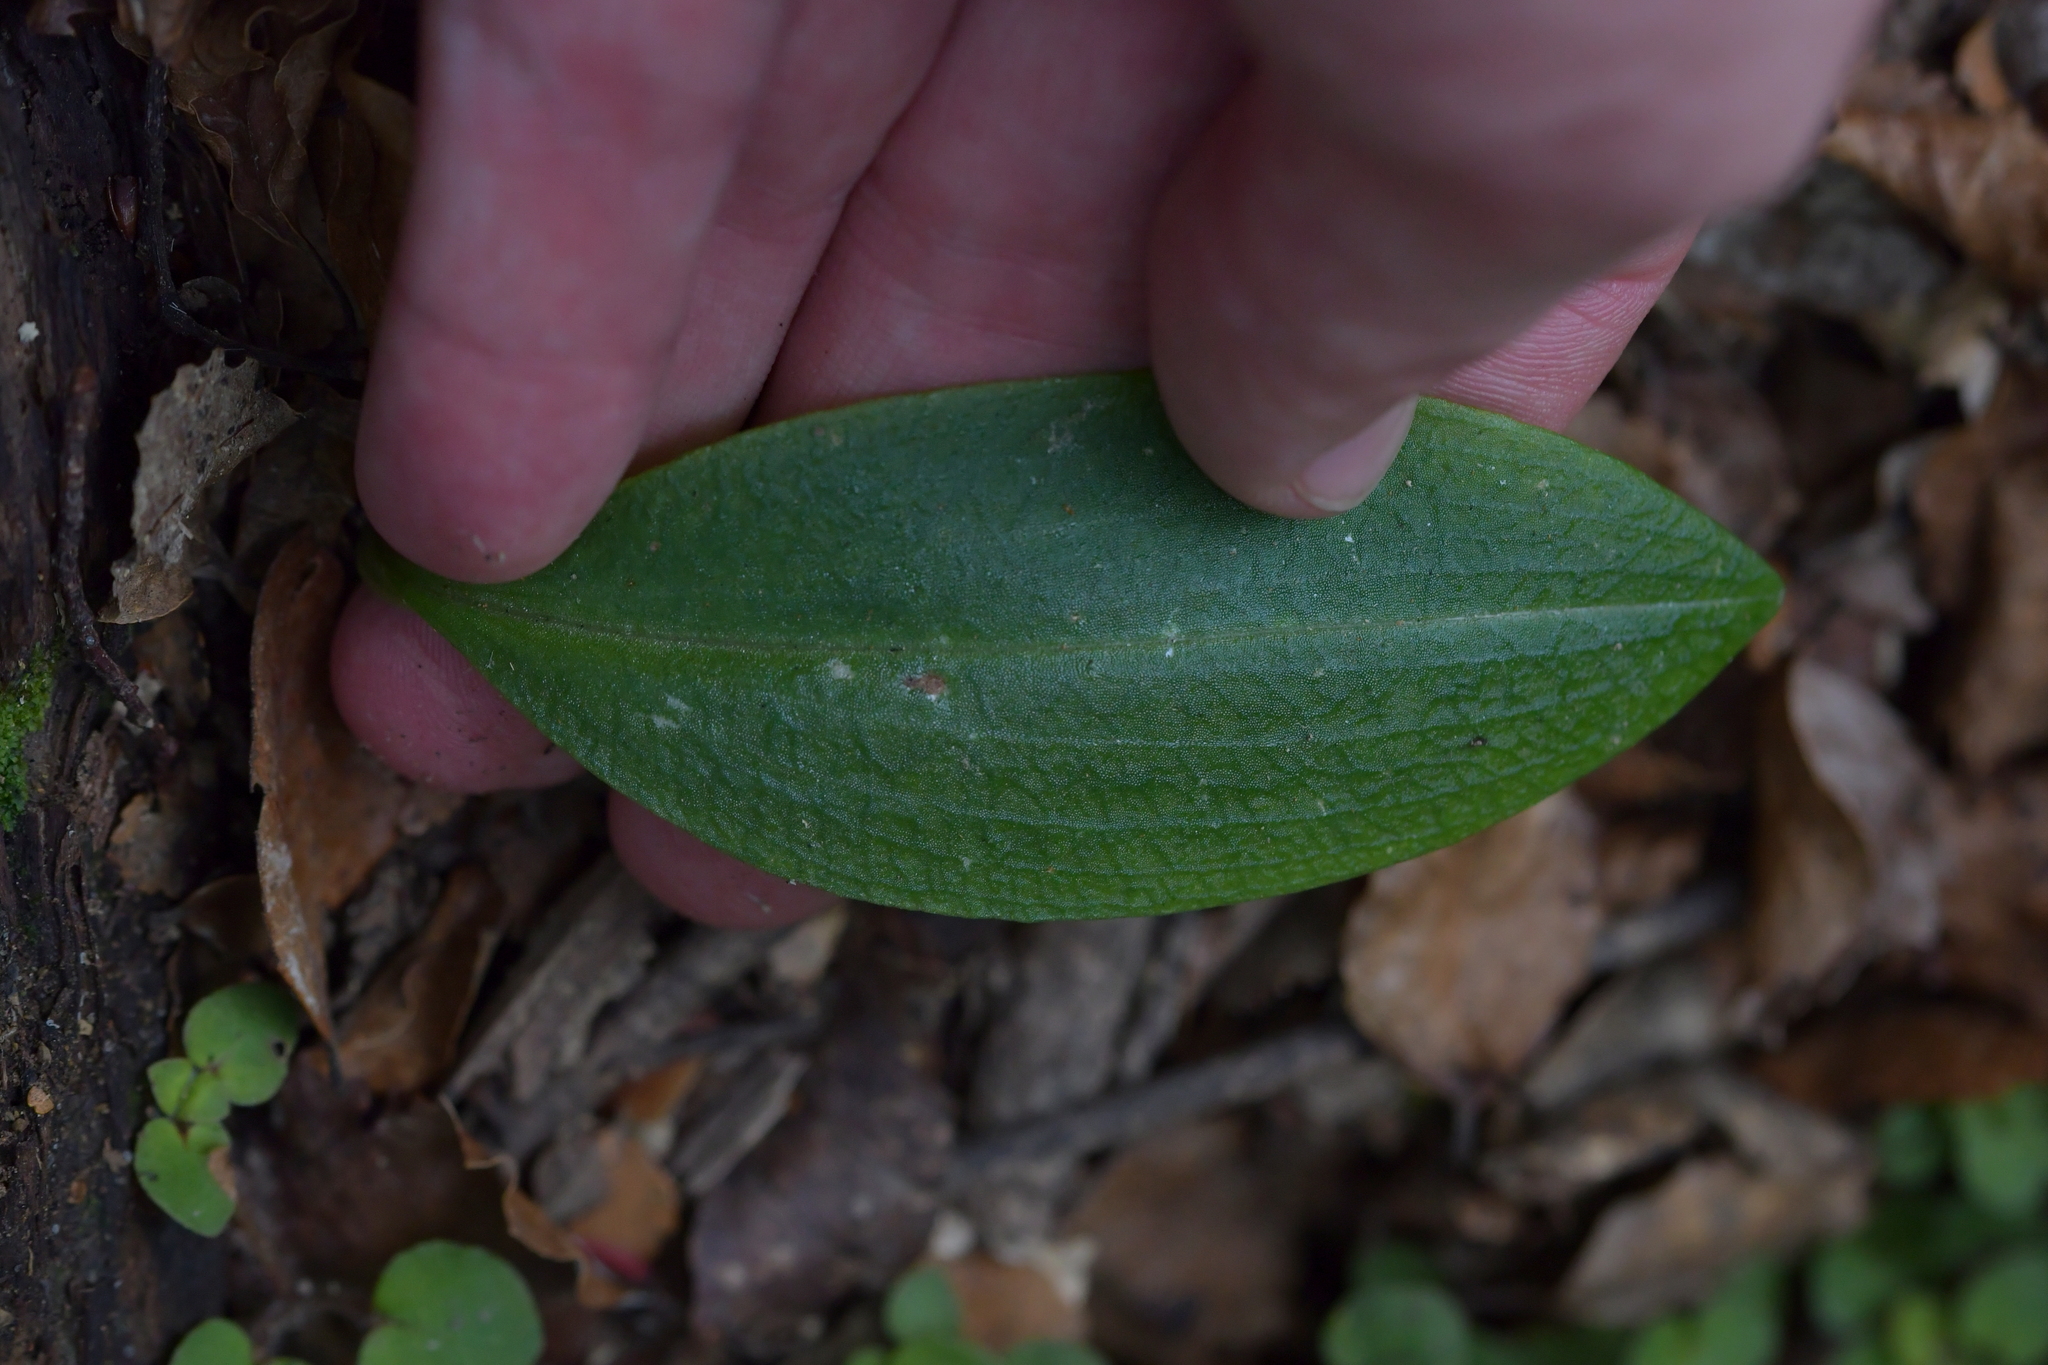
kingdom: Plantae
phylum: Tracheophyta
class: Liliopsida
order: Asparagales
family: Orchidaceae
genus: Chiloglottis
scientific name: Chiloglottis cornuta
